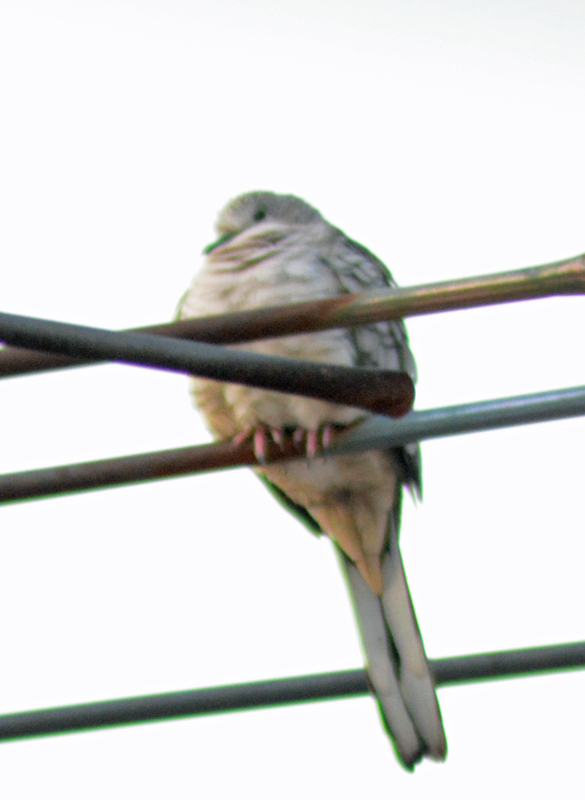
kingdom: Animalia
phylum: Chordata
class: Aves
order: Columbiformes
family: Columbidae
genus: Columbina
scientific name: Columbina inca
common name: Inca dove
